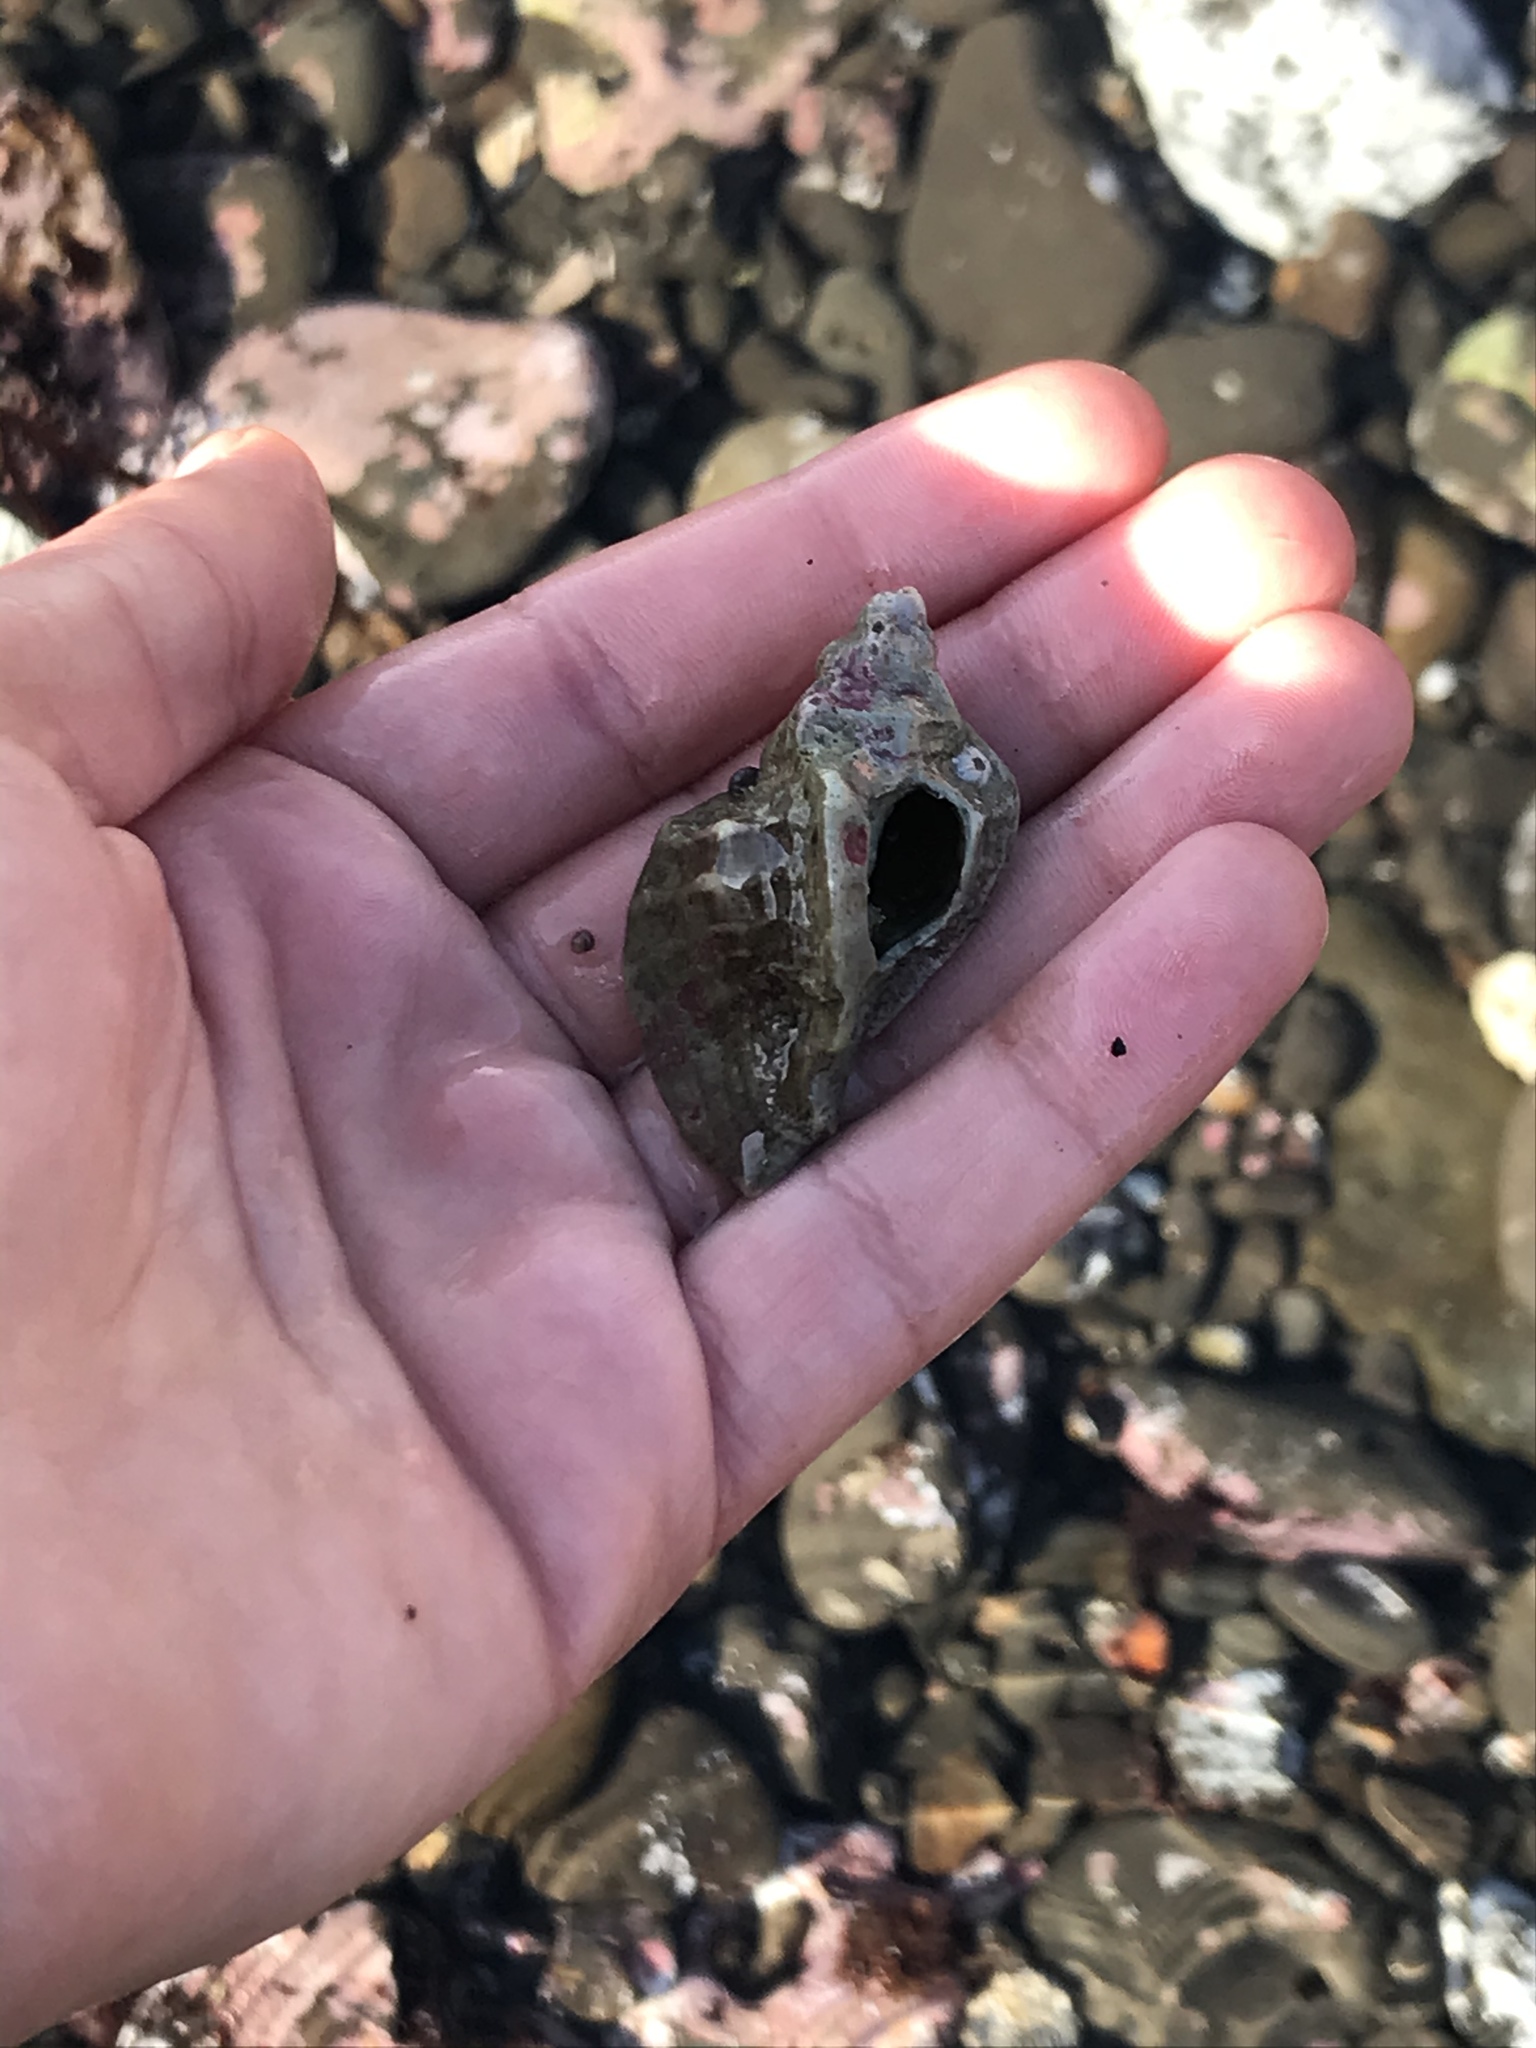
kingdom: Animalia
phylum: Mollusca
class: Gastropoda
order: Neogastropoda
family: Muricidae
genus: Ceratostoma
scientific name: Ceratostoma foliatum
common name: Foliate thorn purpura
